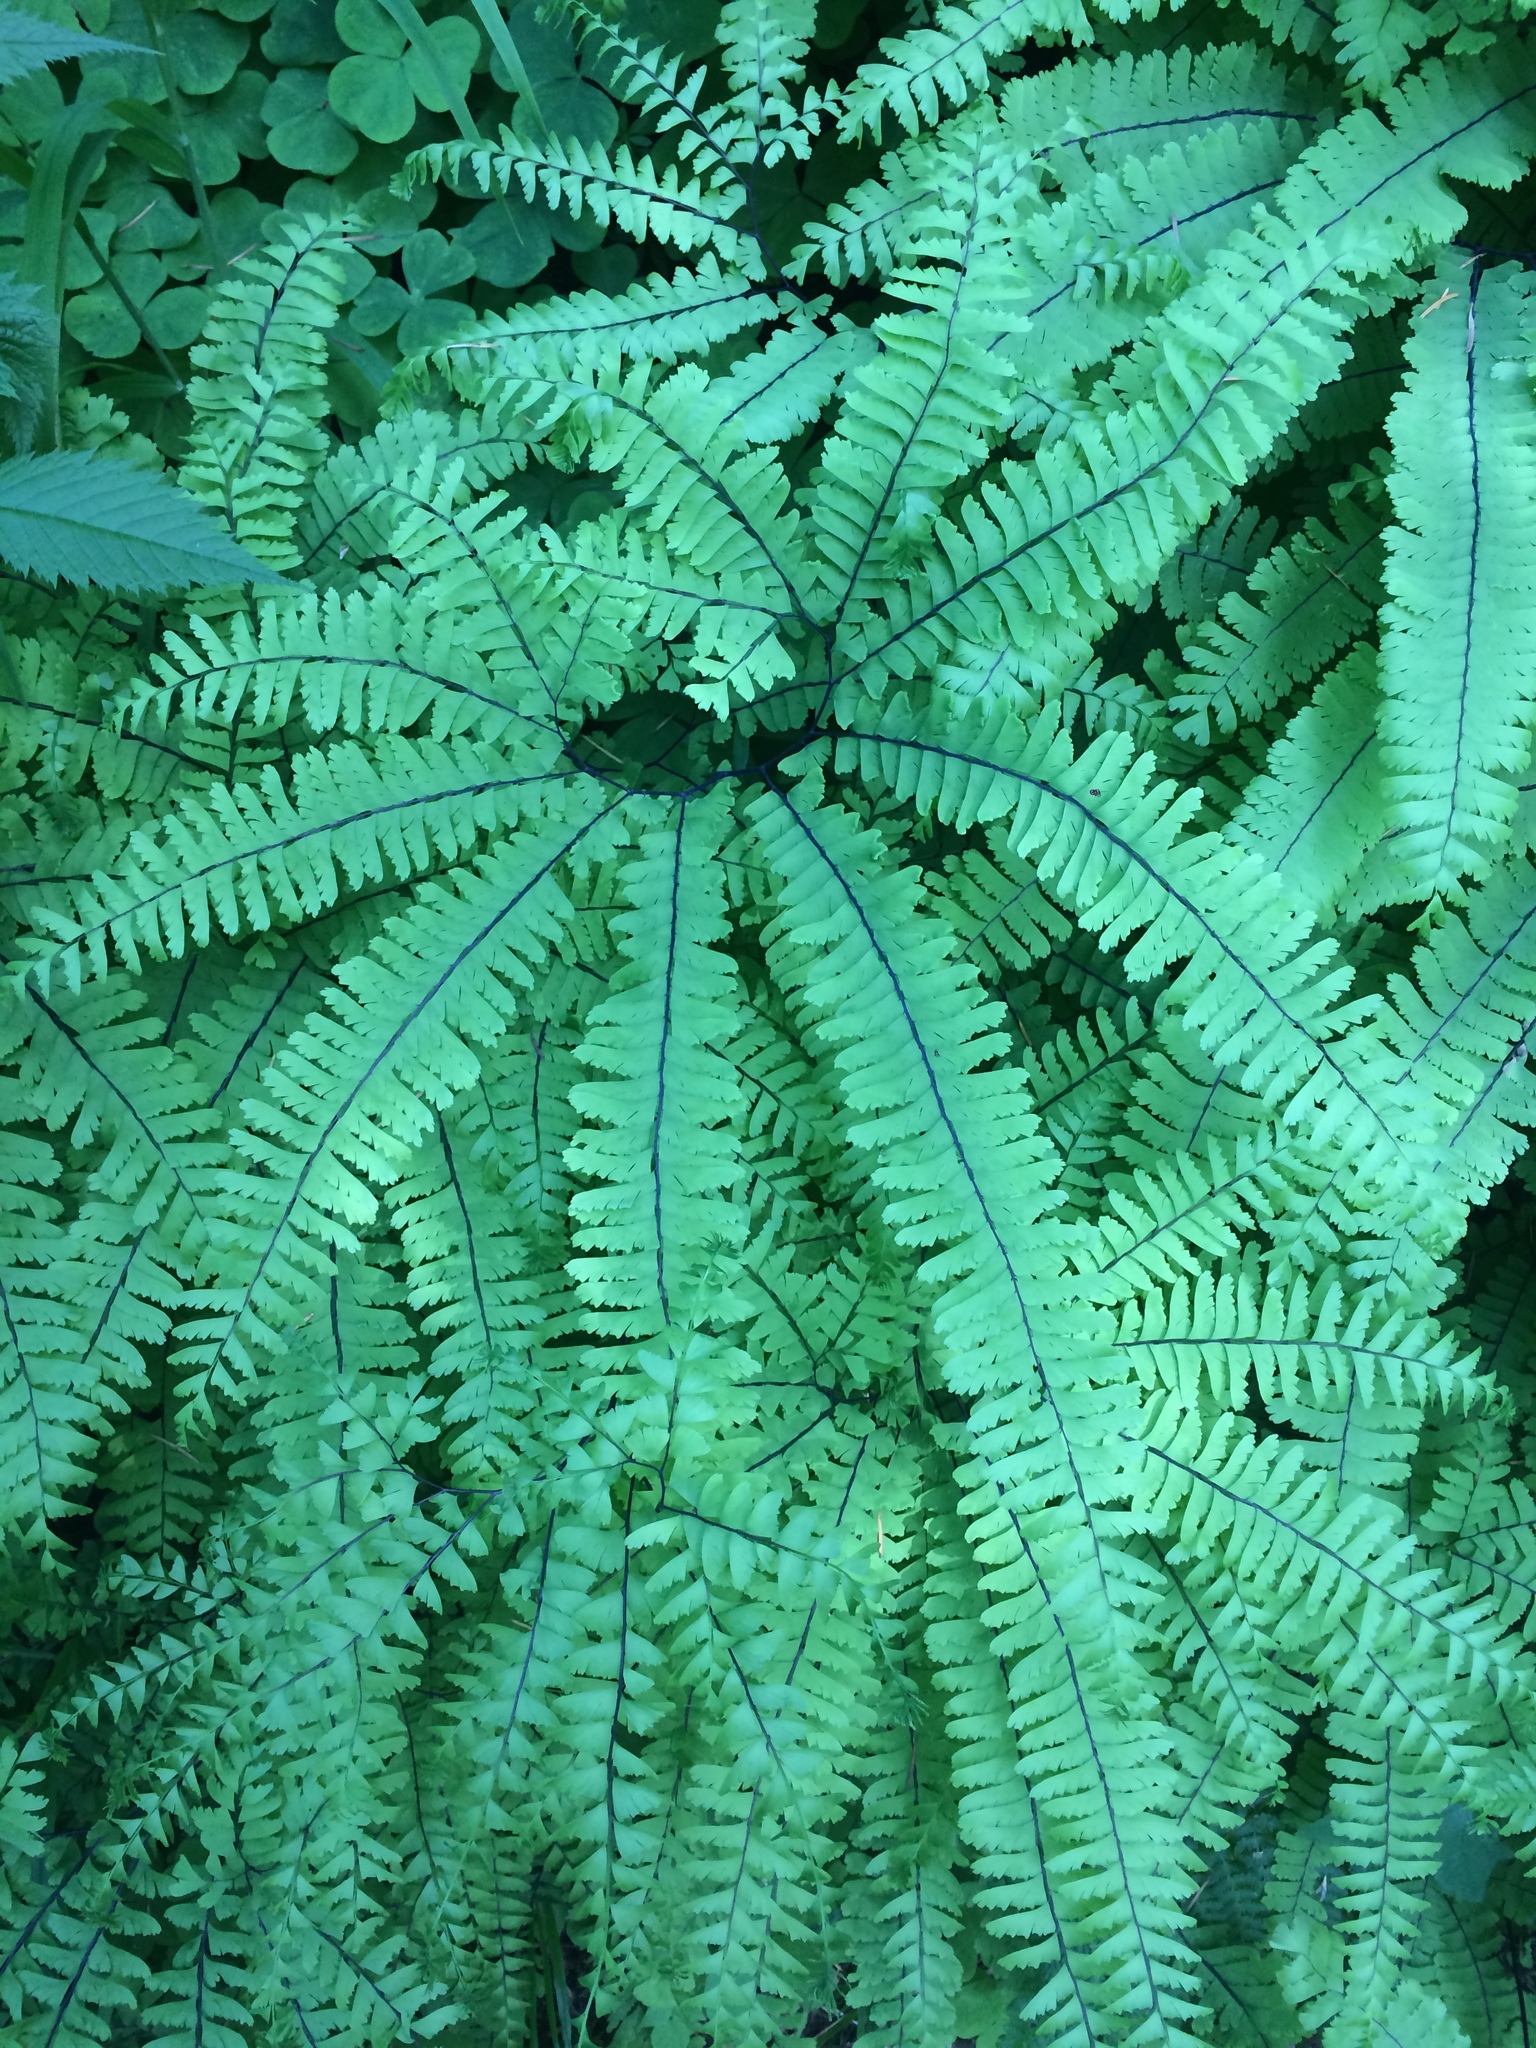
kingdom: Plantae
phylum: Tracheophyta
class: Polypodiopsida
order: Polypodiales
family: Pteridaceae
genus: Adiantum
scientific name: Adiantum aleuticum
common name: Aleutian maidenhair fern
